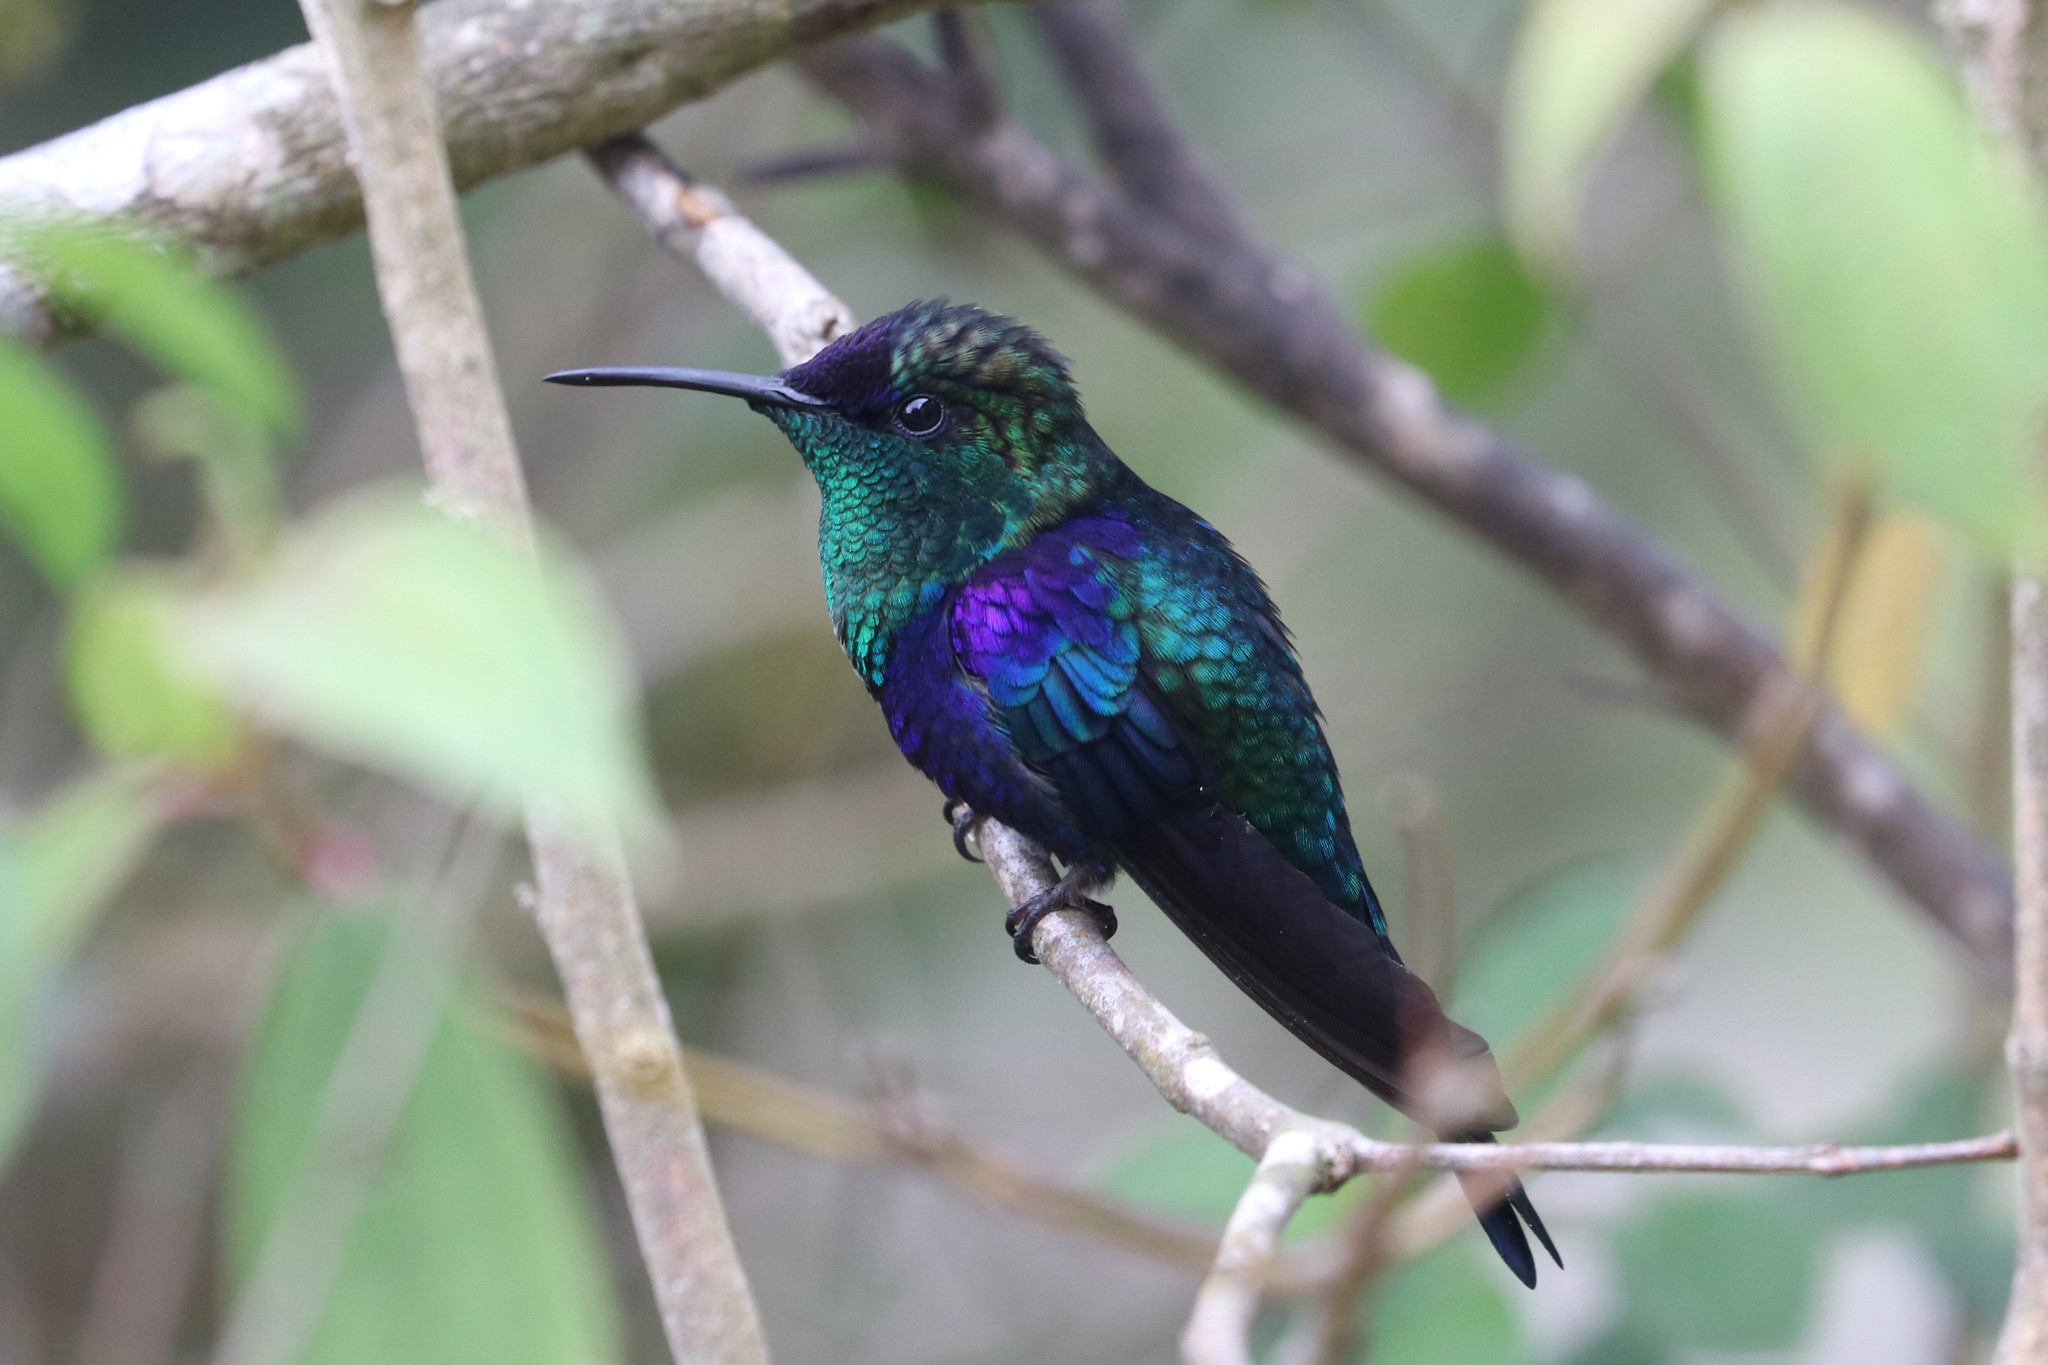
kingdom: Animalia
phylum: Chordata
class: Aves
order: Apodiformes
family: Trochilidae
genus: Thalurania
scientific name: Thalurania colombica
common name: Crowned woodnymph
